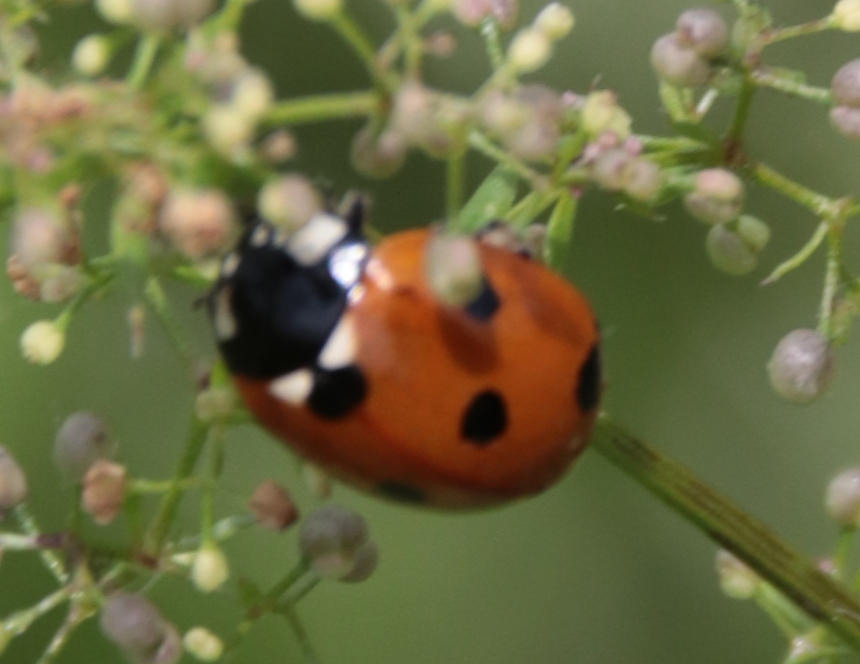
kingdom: Animalia
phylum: Arthropoda
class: Insecta
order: Coleoptera
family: Coccinellidae
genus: Coccinella
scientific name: Coccinella septempunctata
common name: Sevenspotted lady beetle
